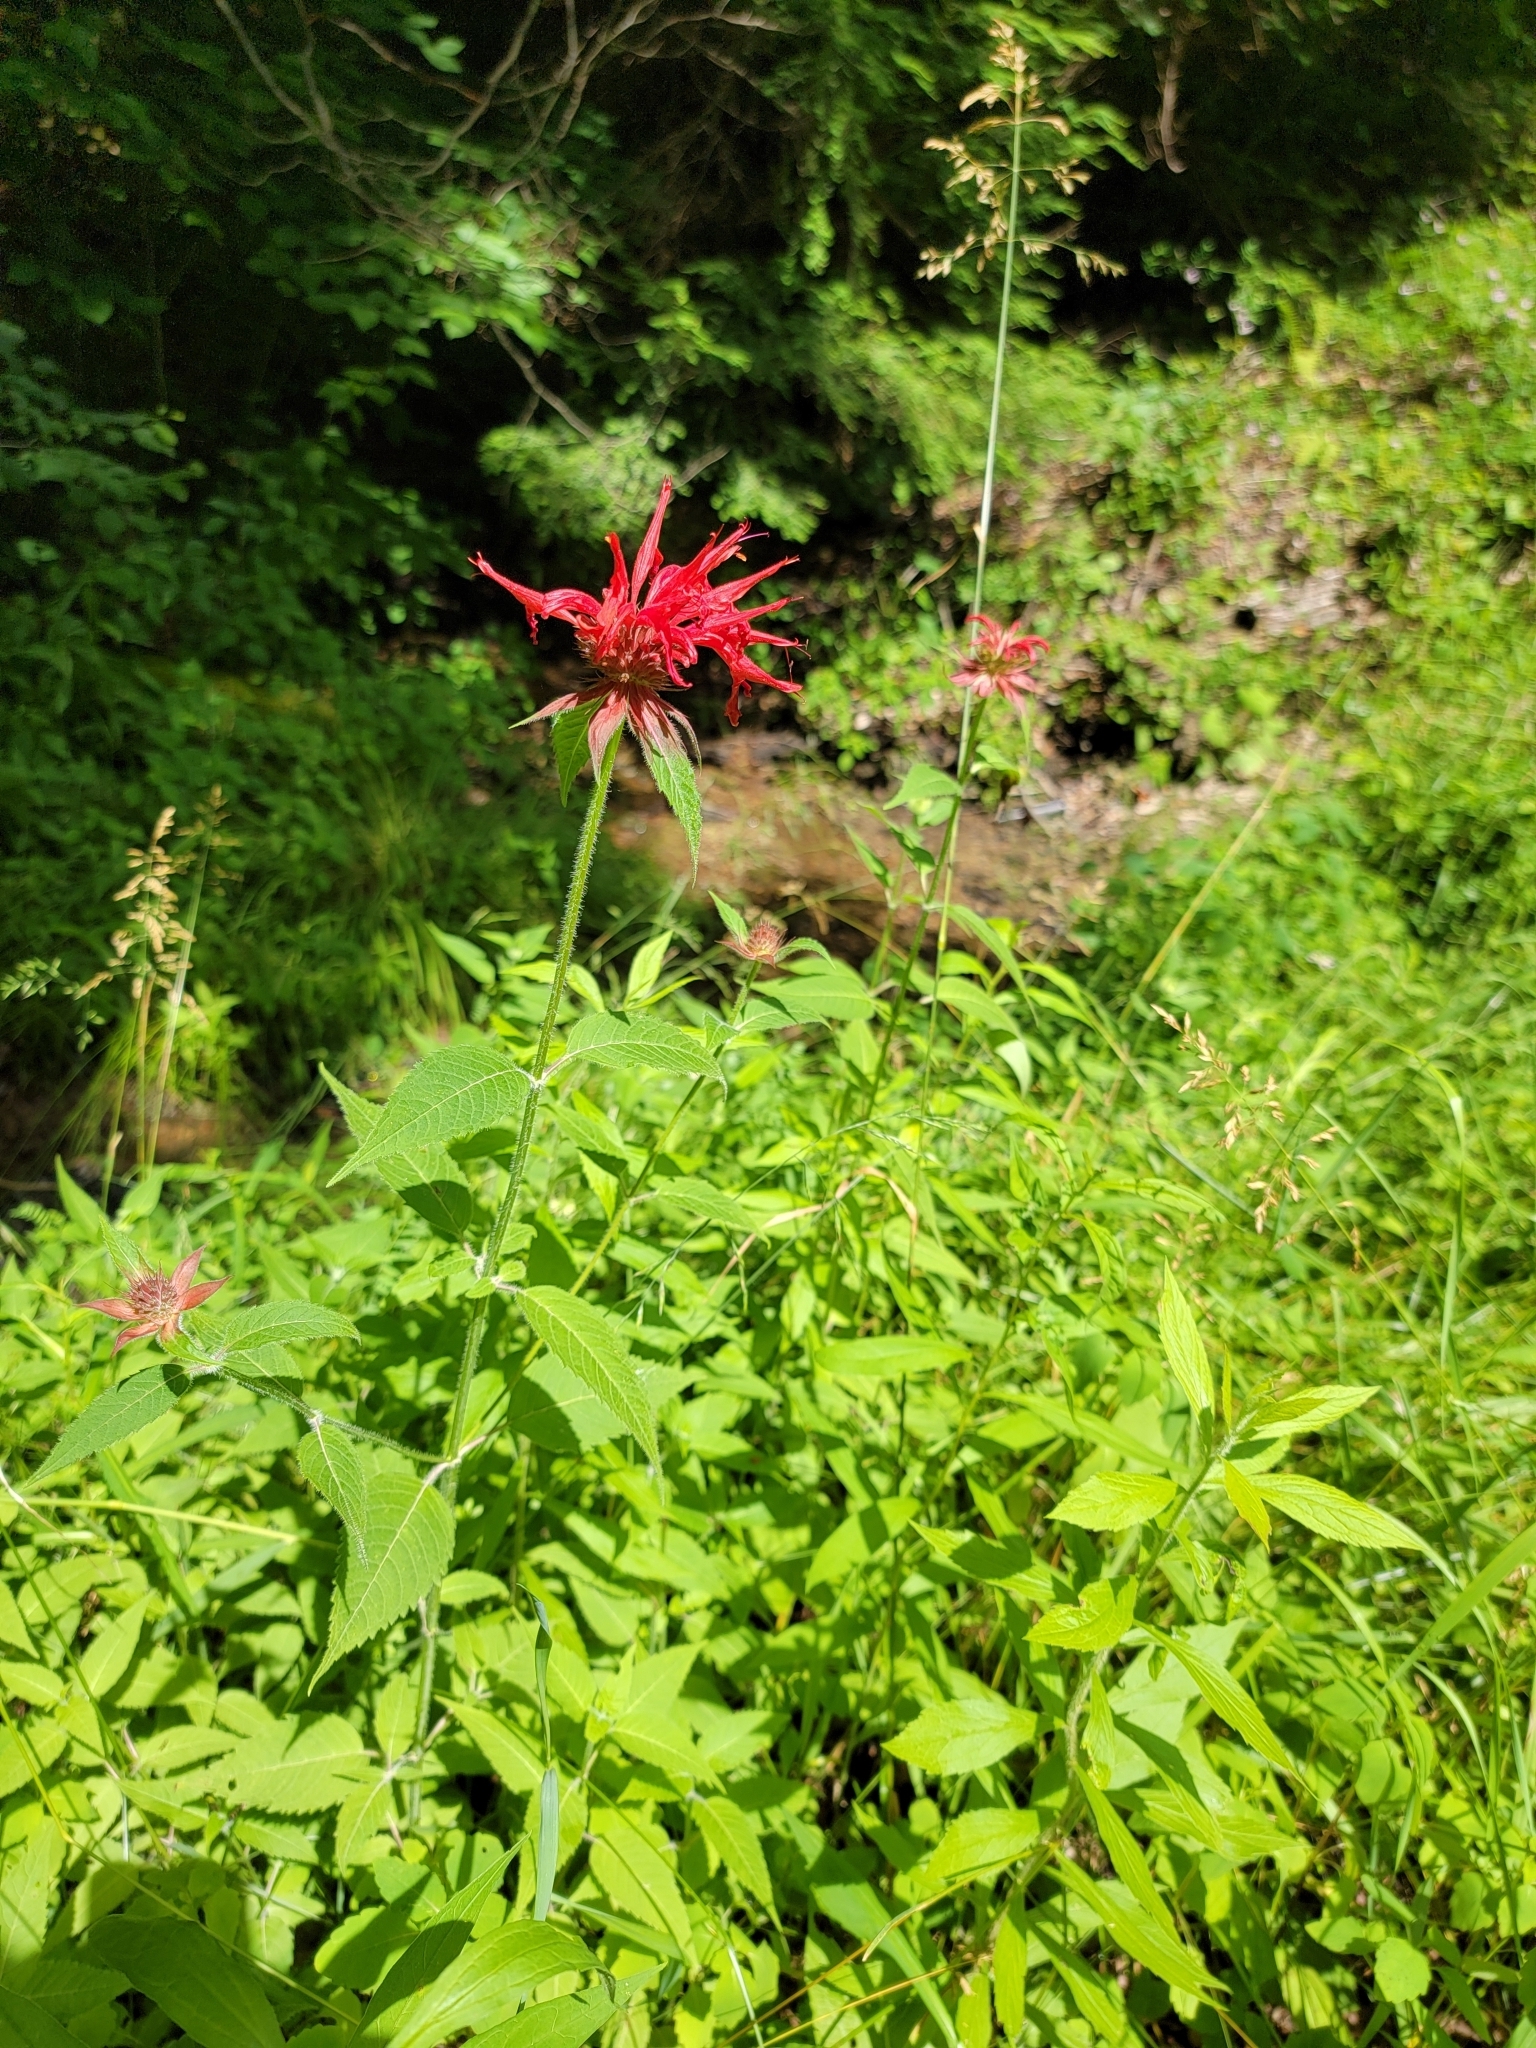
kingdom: Plantae
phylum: Tracheophyta
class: Magnoliopsida
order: Lamiales
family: Lamiaceae
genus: Monarda
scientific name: Monarda didyma
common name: Beebalm
